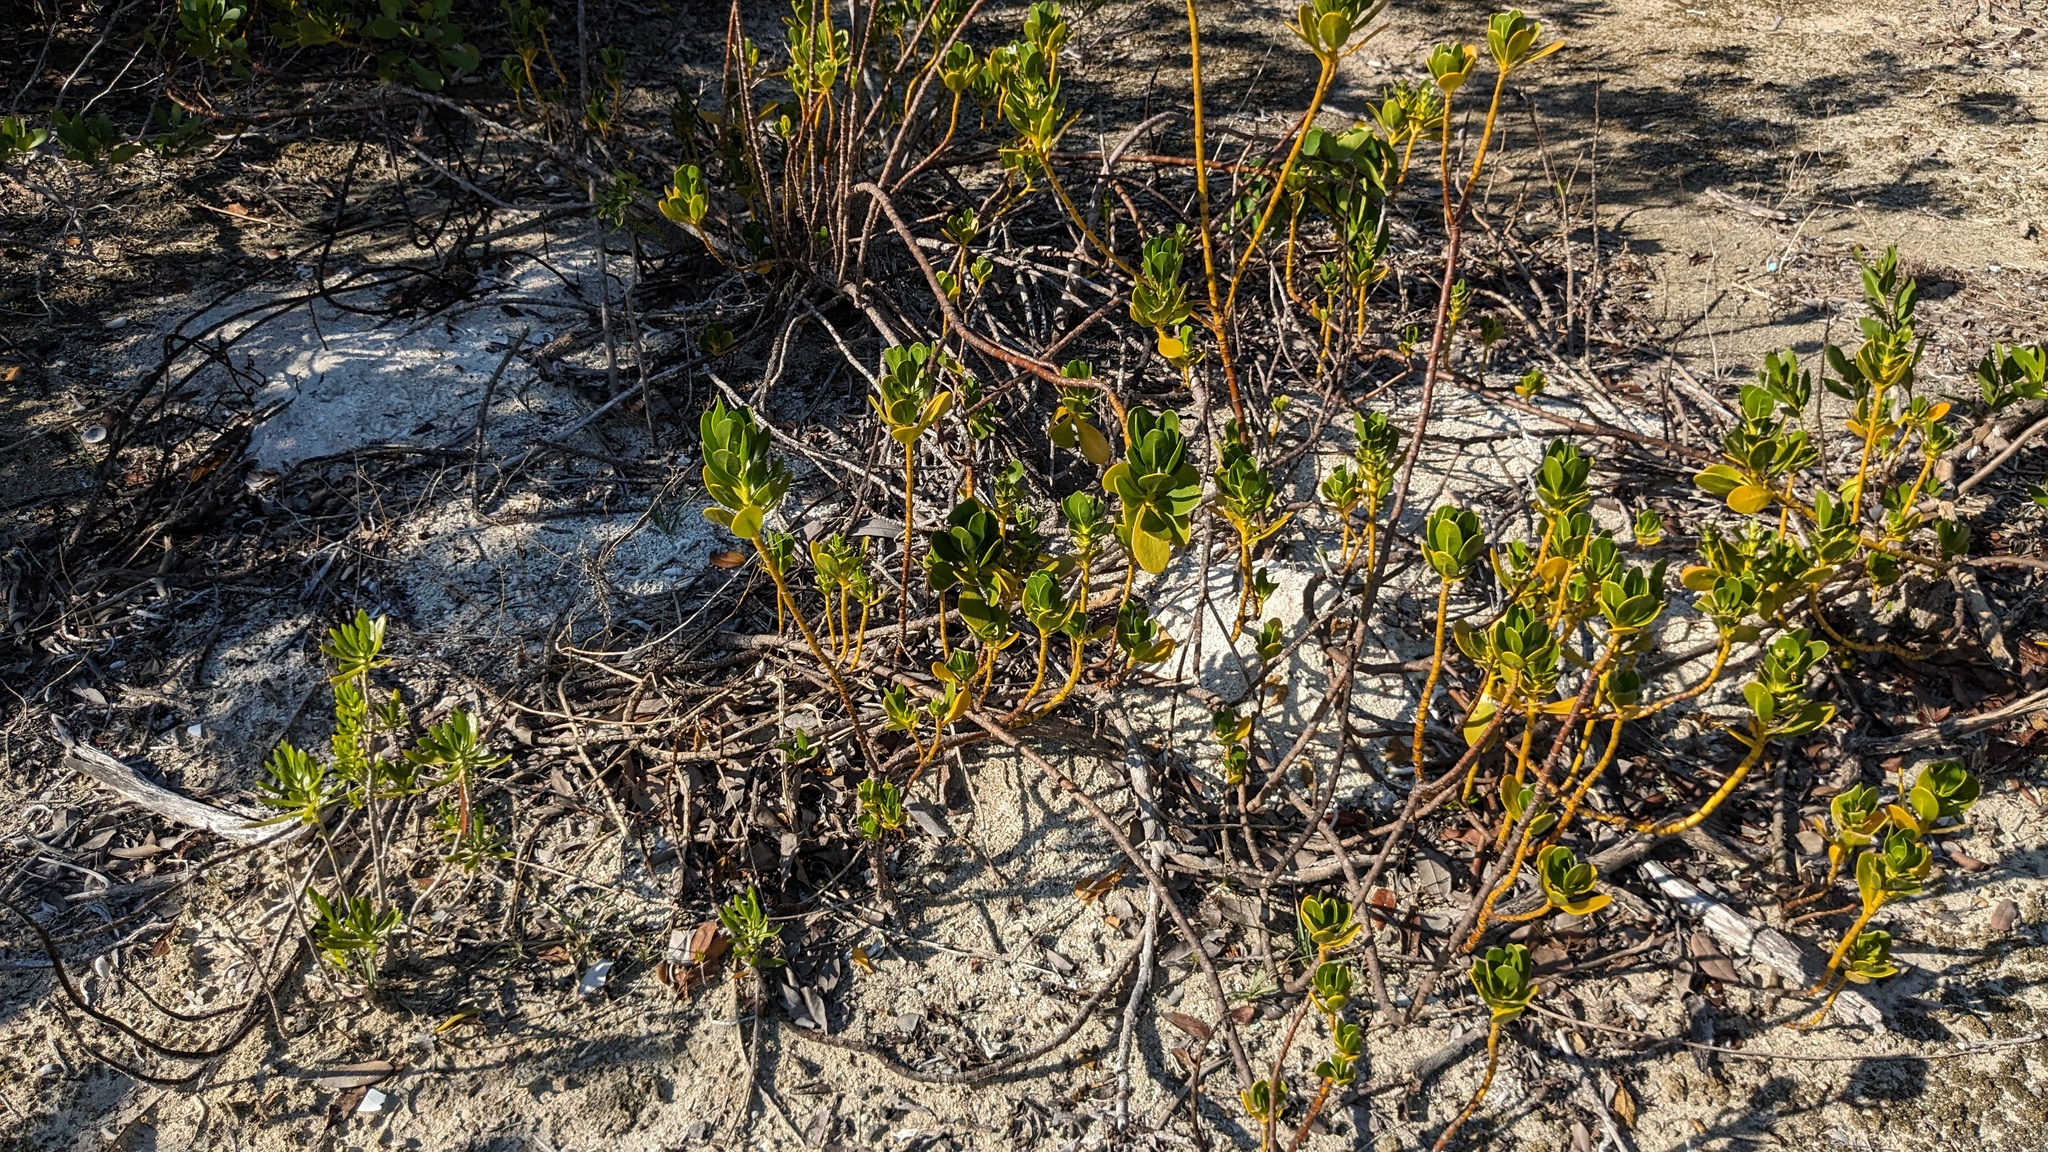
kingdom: Plantae
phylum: Tracheophyta
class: Magnoliopsida
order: Asterales
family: Goodeniaceae
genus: Scaevola
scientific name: Scaevola plumieri
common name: Gull feed
